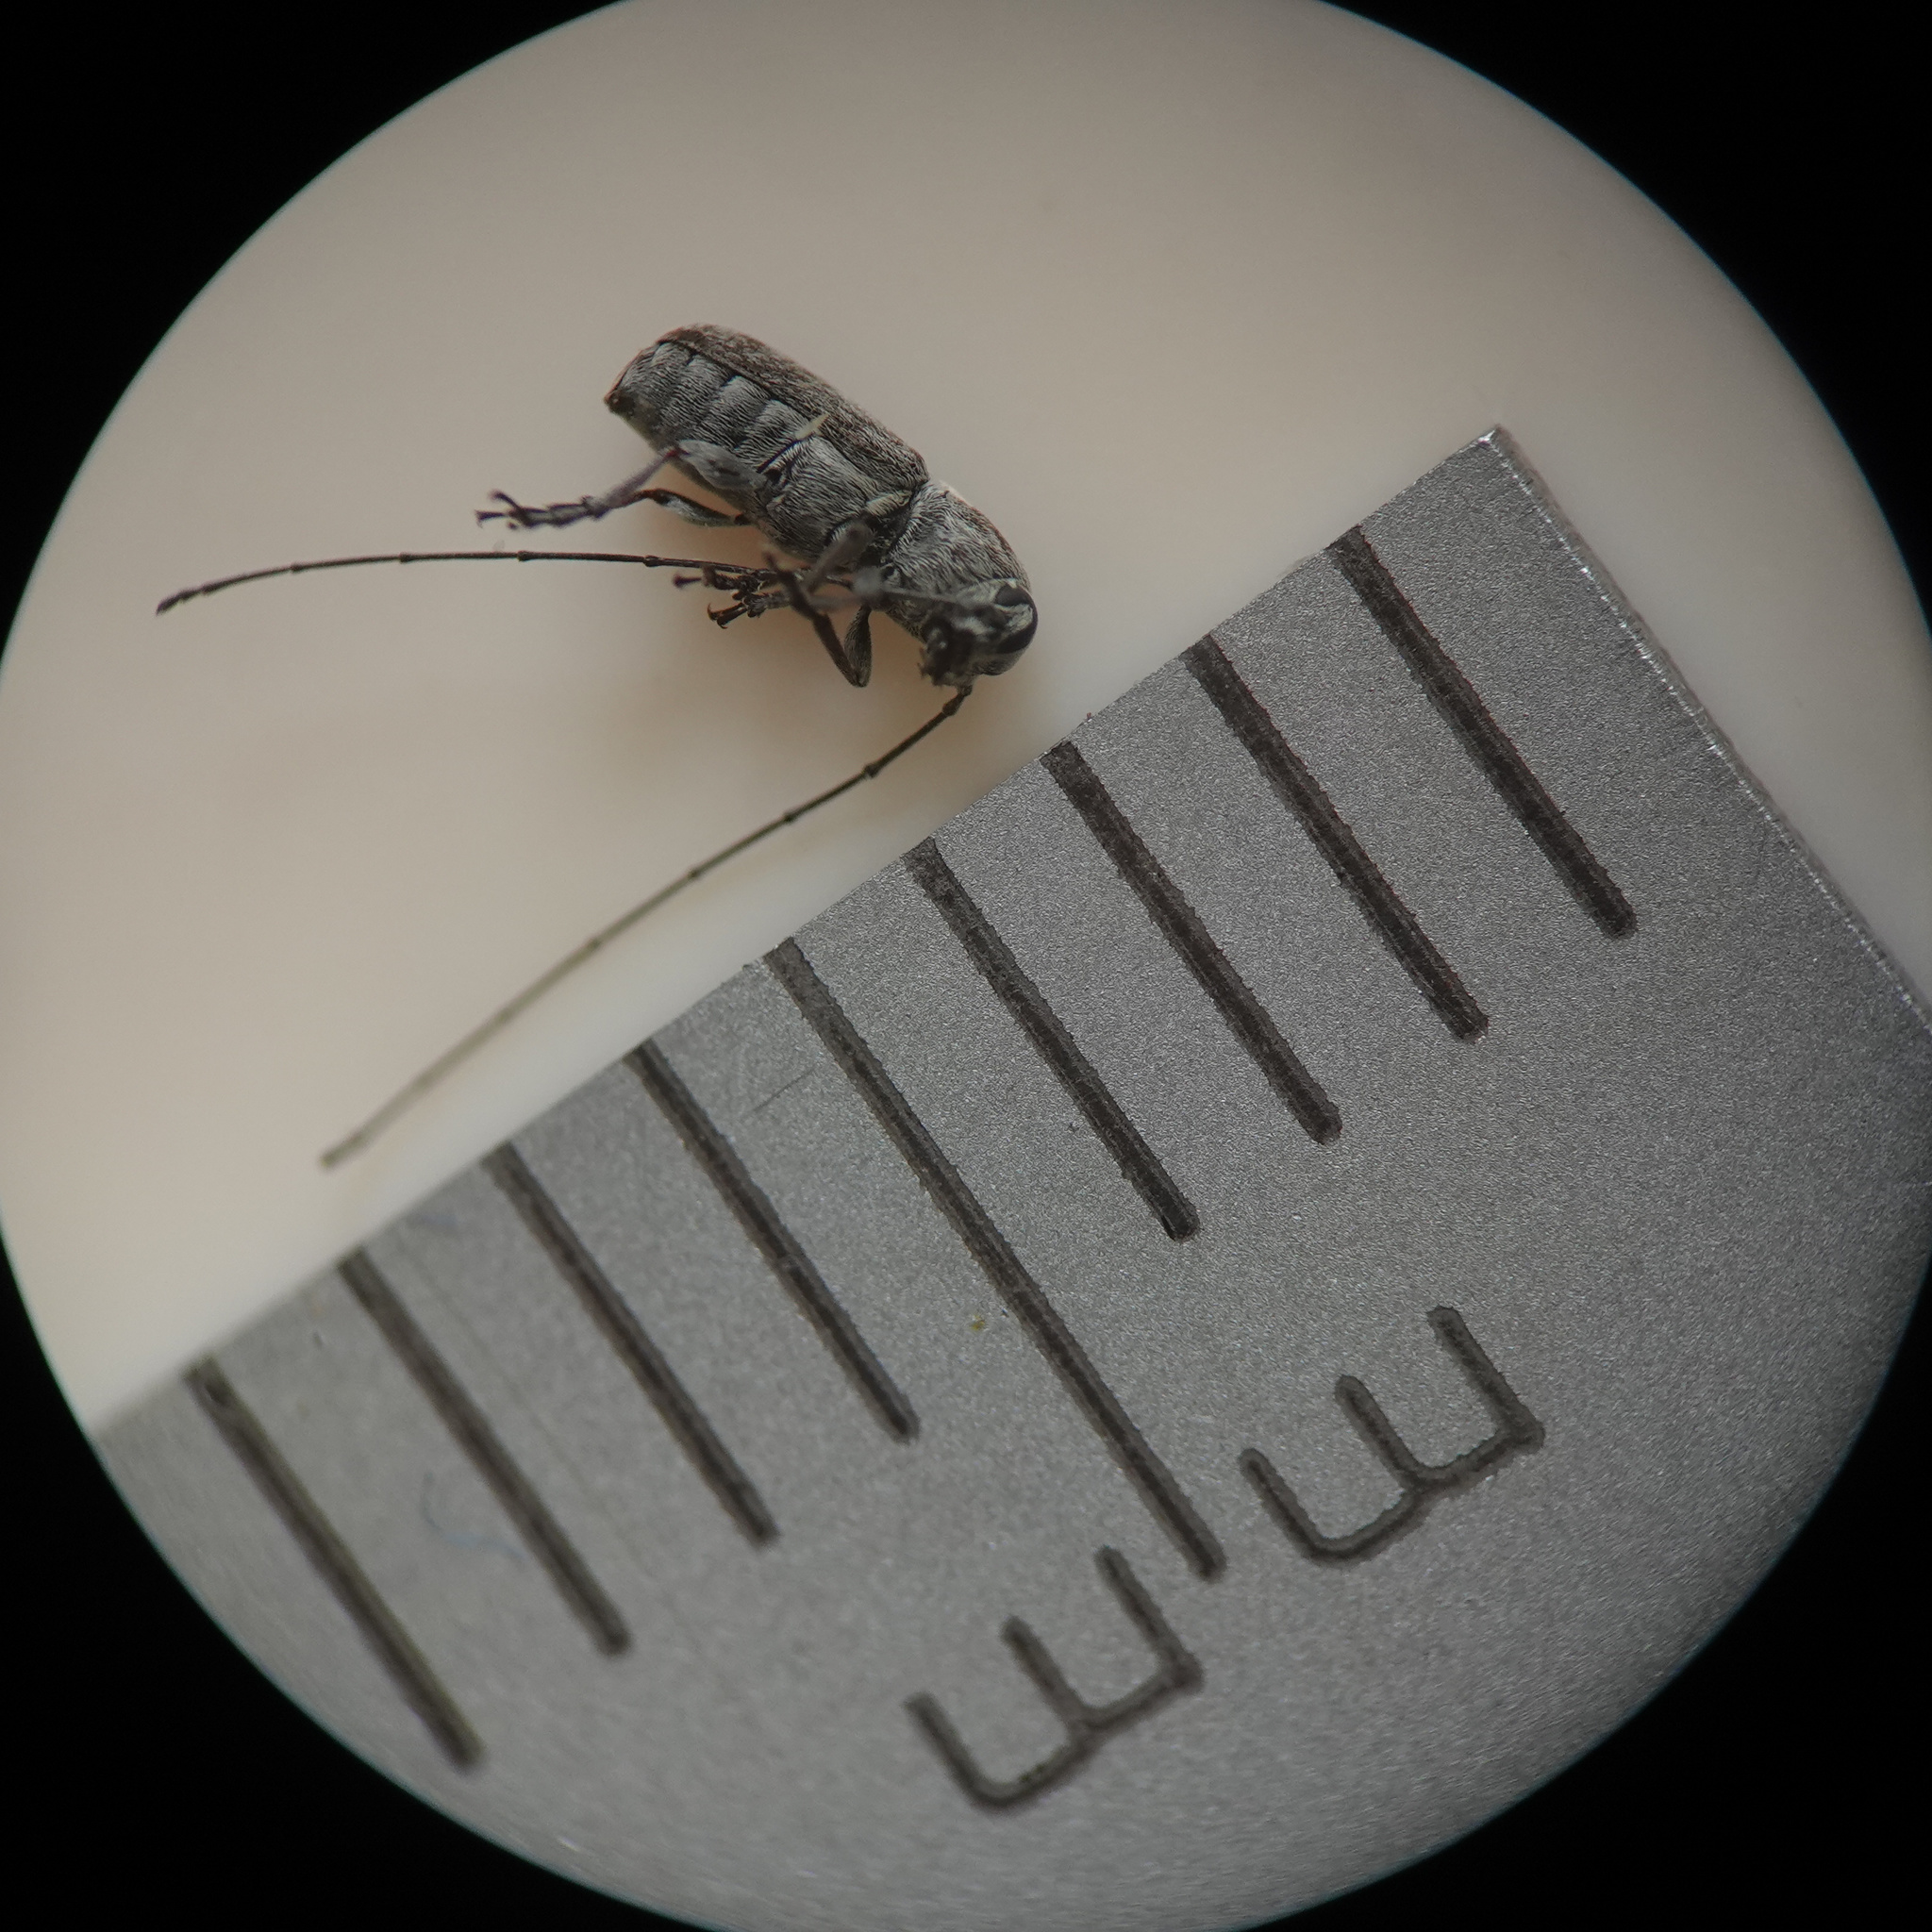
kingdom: Animalia
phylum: Arthropoda
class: Insecta
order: Coleoptera
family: Anthribidae
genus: Euciodes
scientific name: Euciodes suturalis
